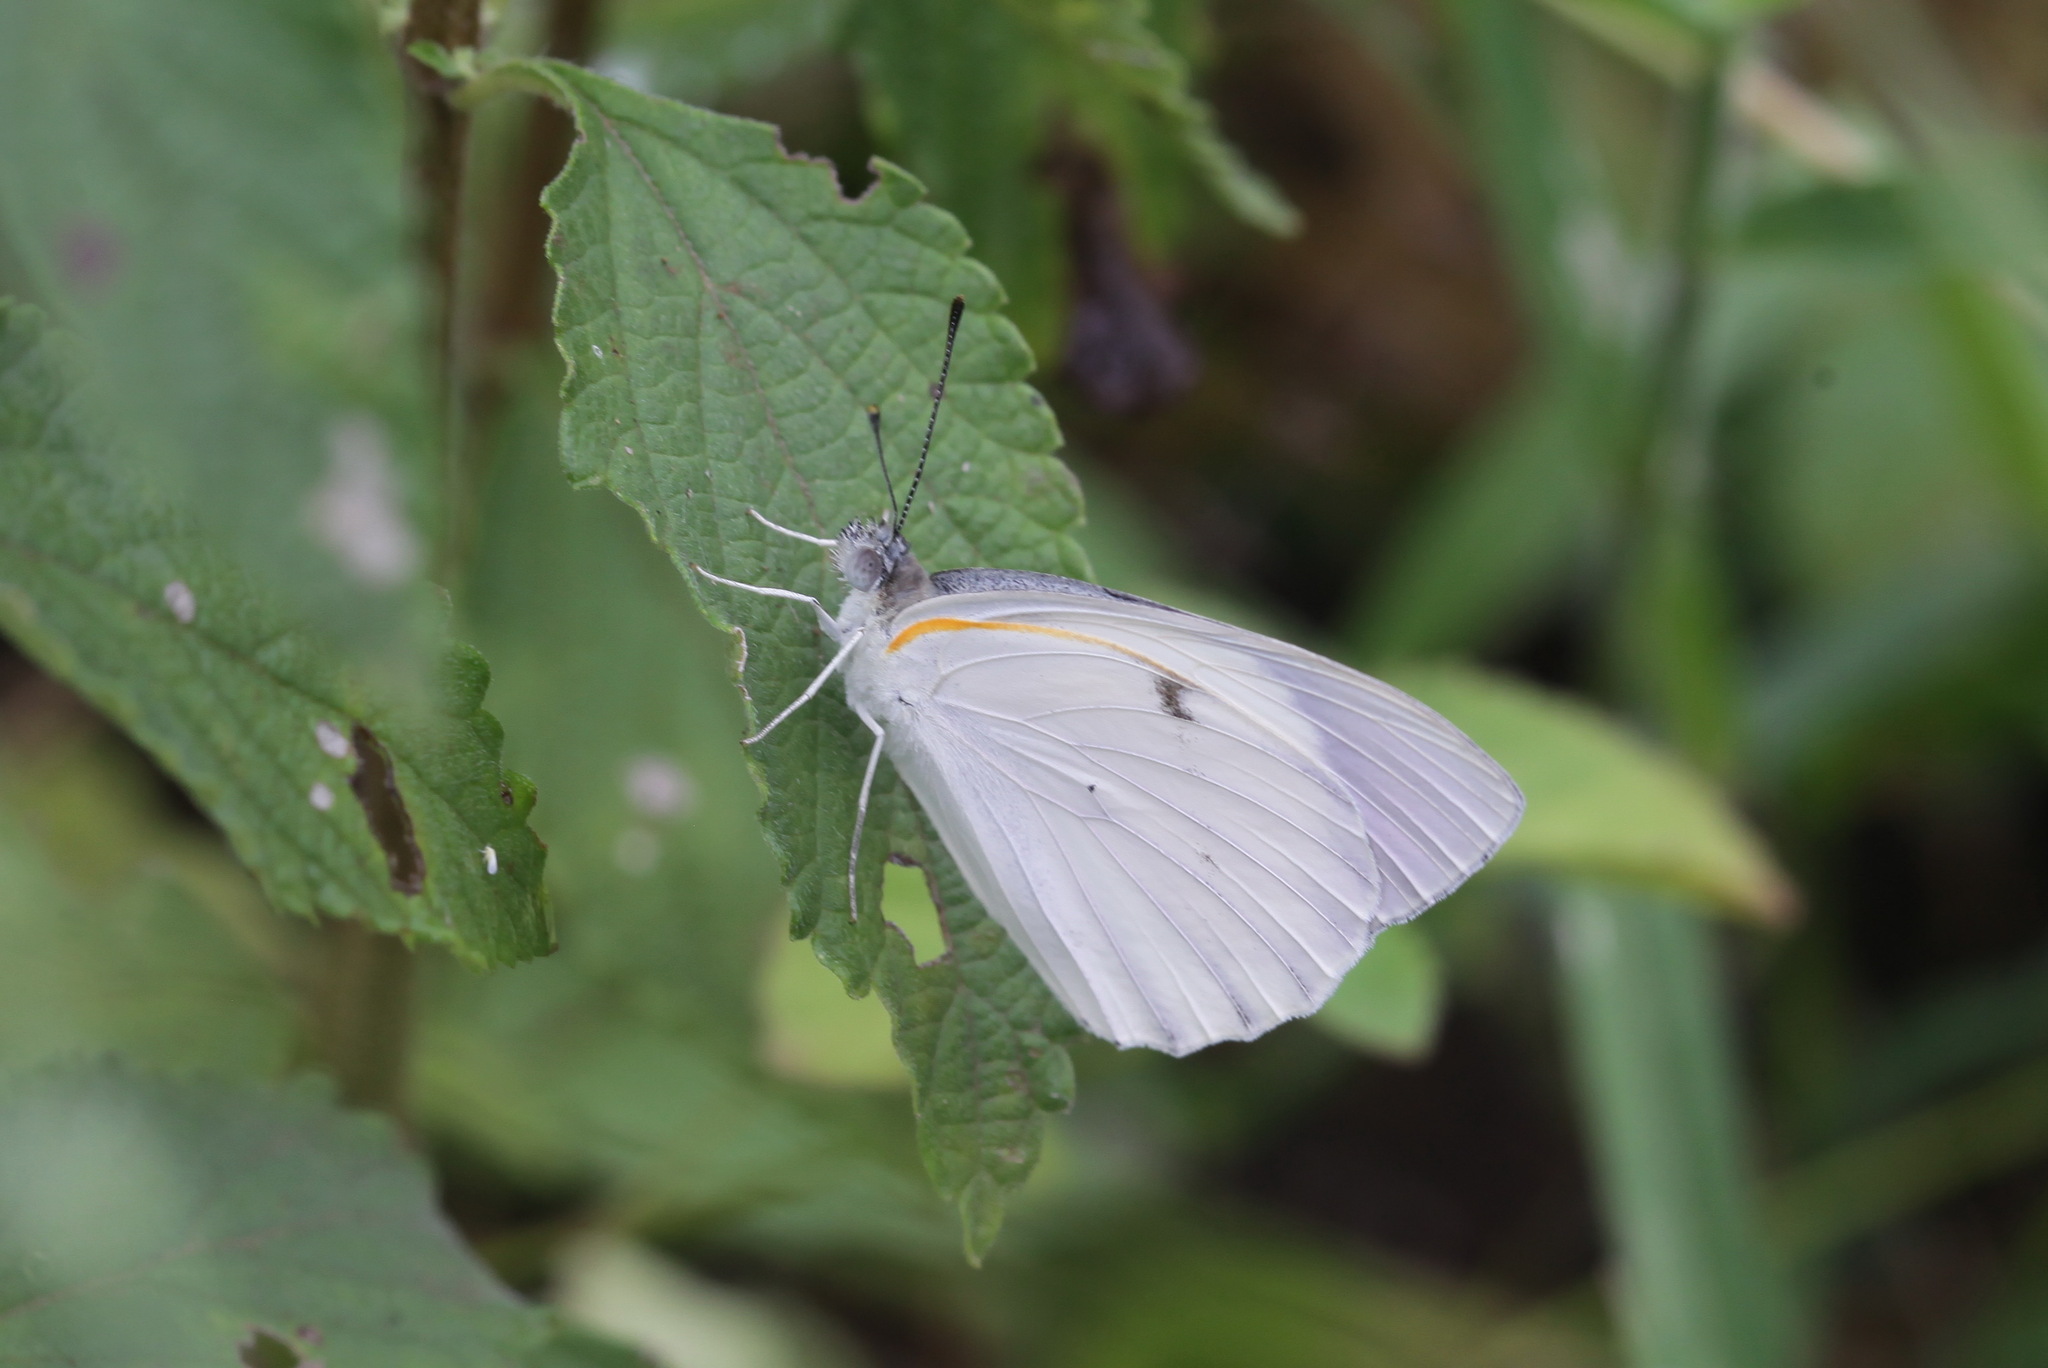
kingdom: Animalia
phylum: Arthropoda
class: Insecta
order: Lepidoptera
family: Pieridae
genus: Colotis
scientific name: Colotis ione
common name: Bushveld purple tip
